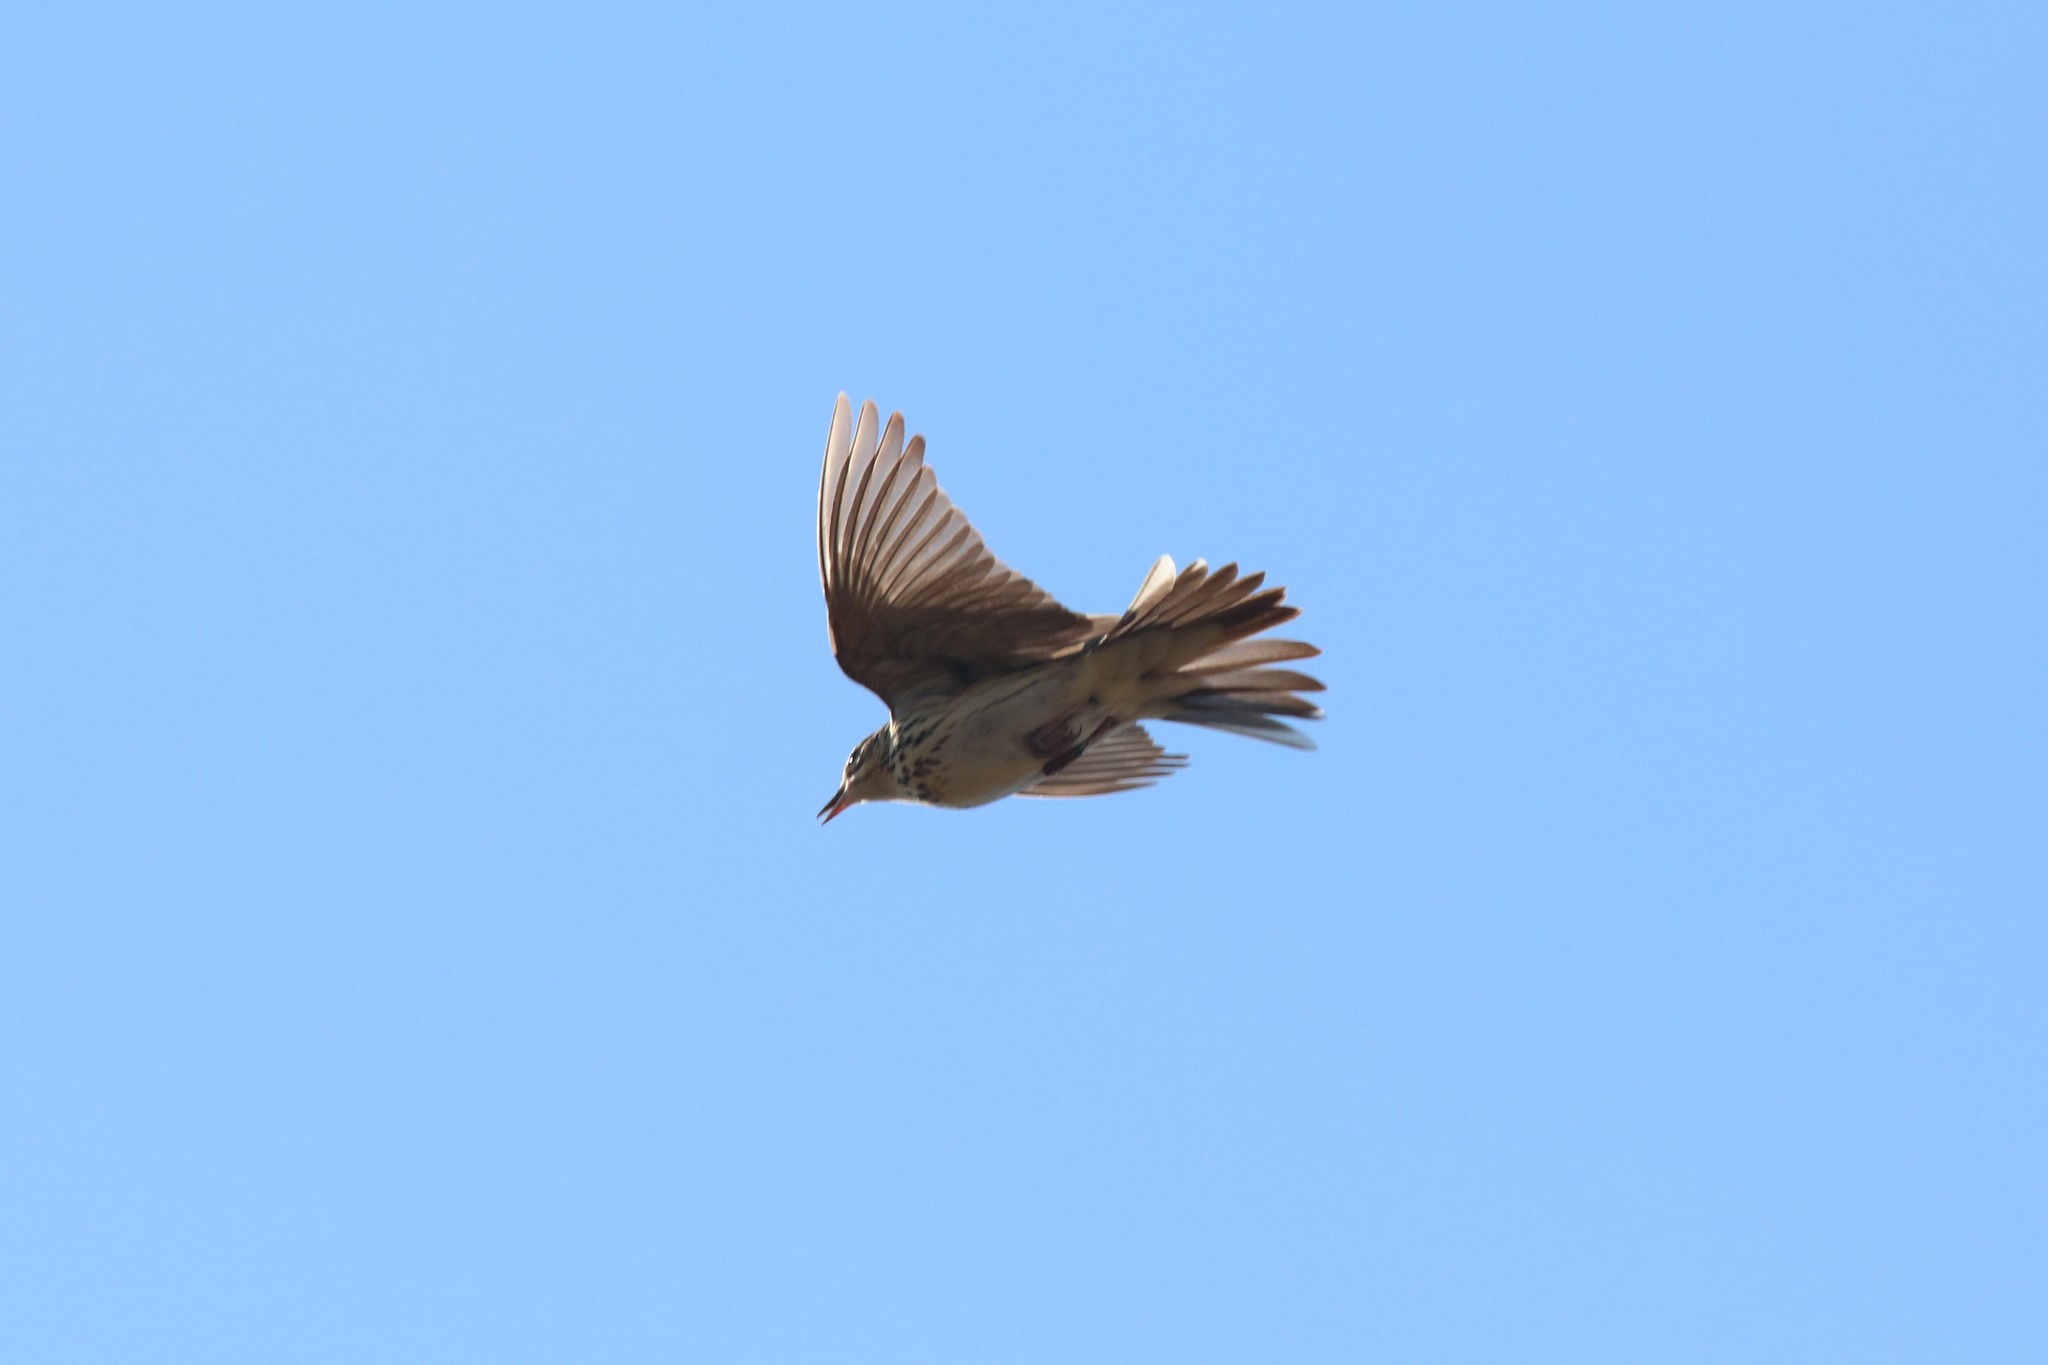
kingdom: Animalia
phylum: Chordata
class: Aves
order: Passeriformes
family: Motacillidae
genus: Anthus
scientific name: Anthus trivialis
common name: Tree pipit
